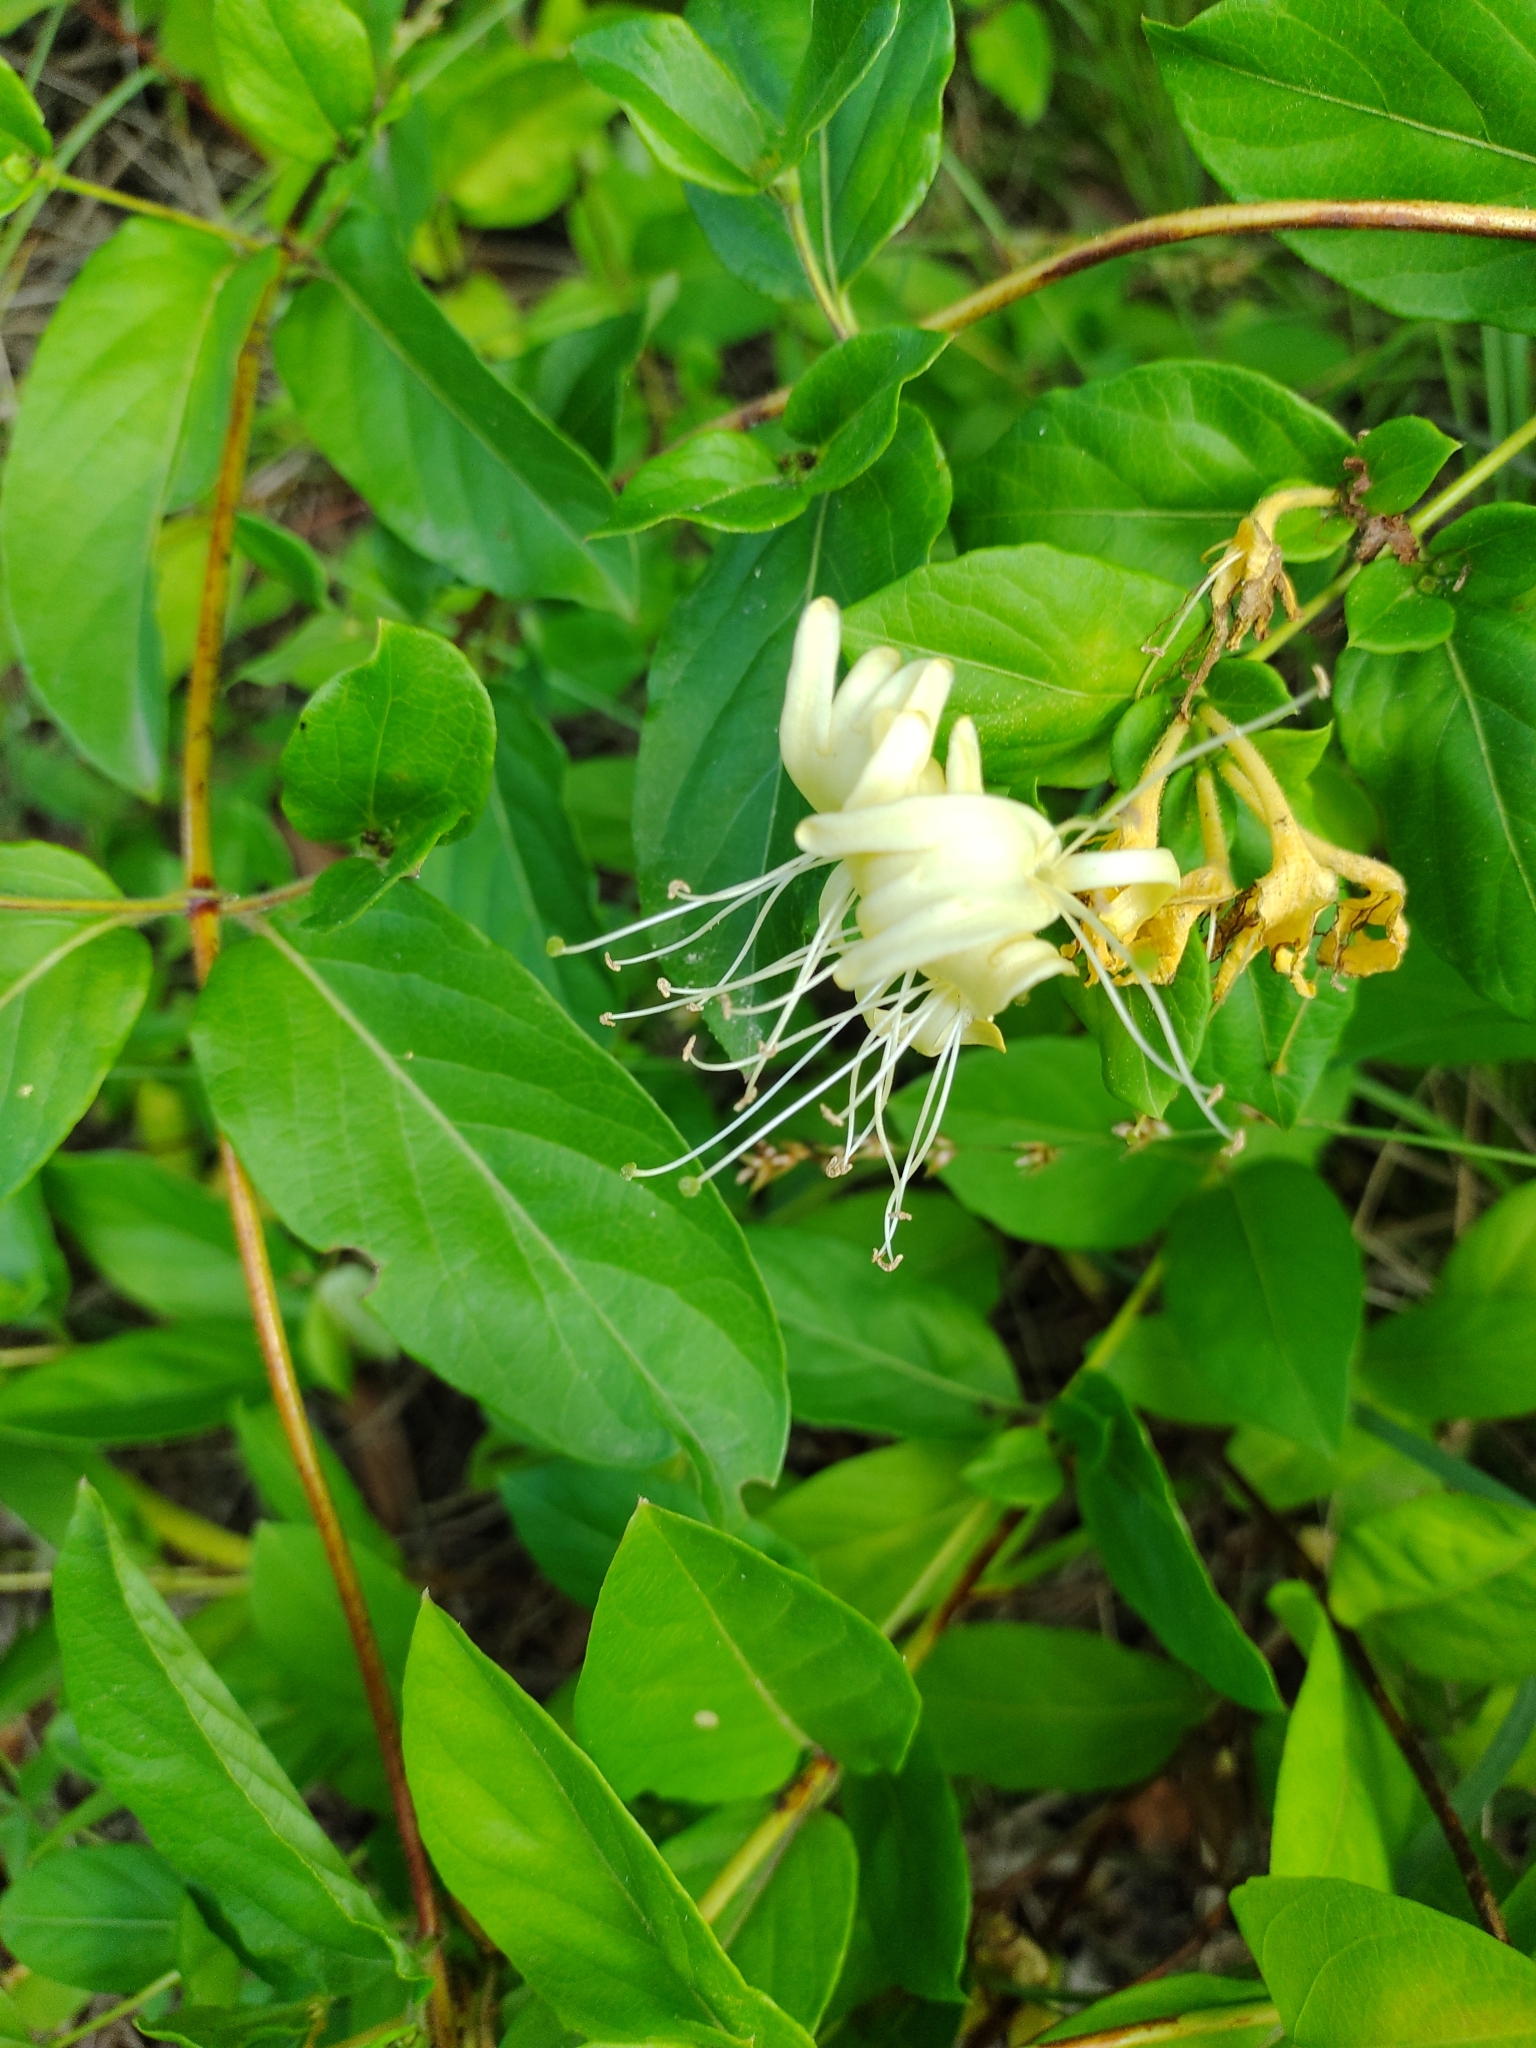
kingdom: Plantae
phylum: Tracheophyta
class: Magnoliopsida
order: Dipsacales
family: Caprifoliaceae
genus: Lonicera
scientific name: Lonicera japonica
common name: Japanese honeysuckle
